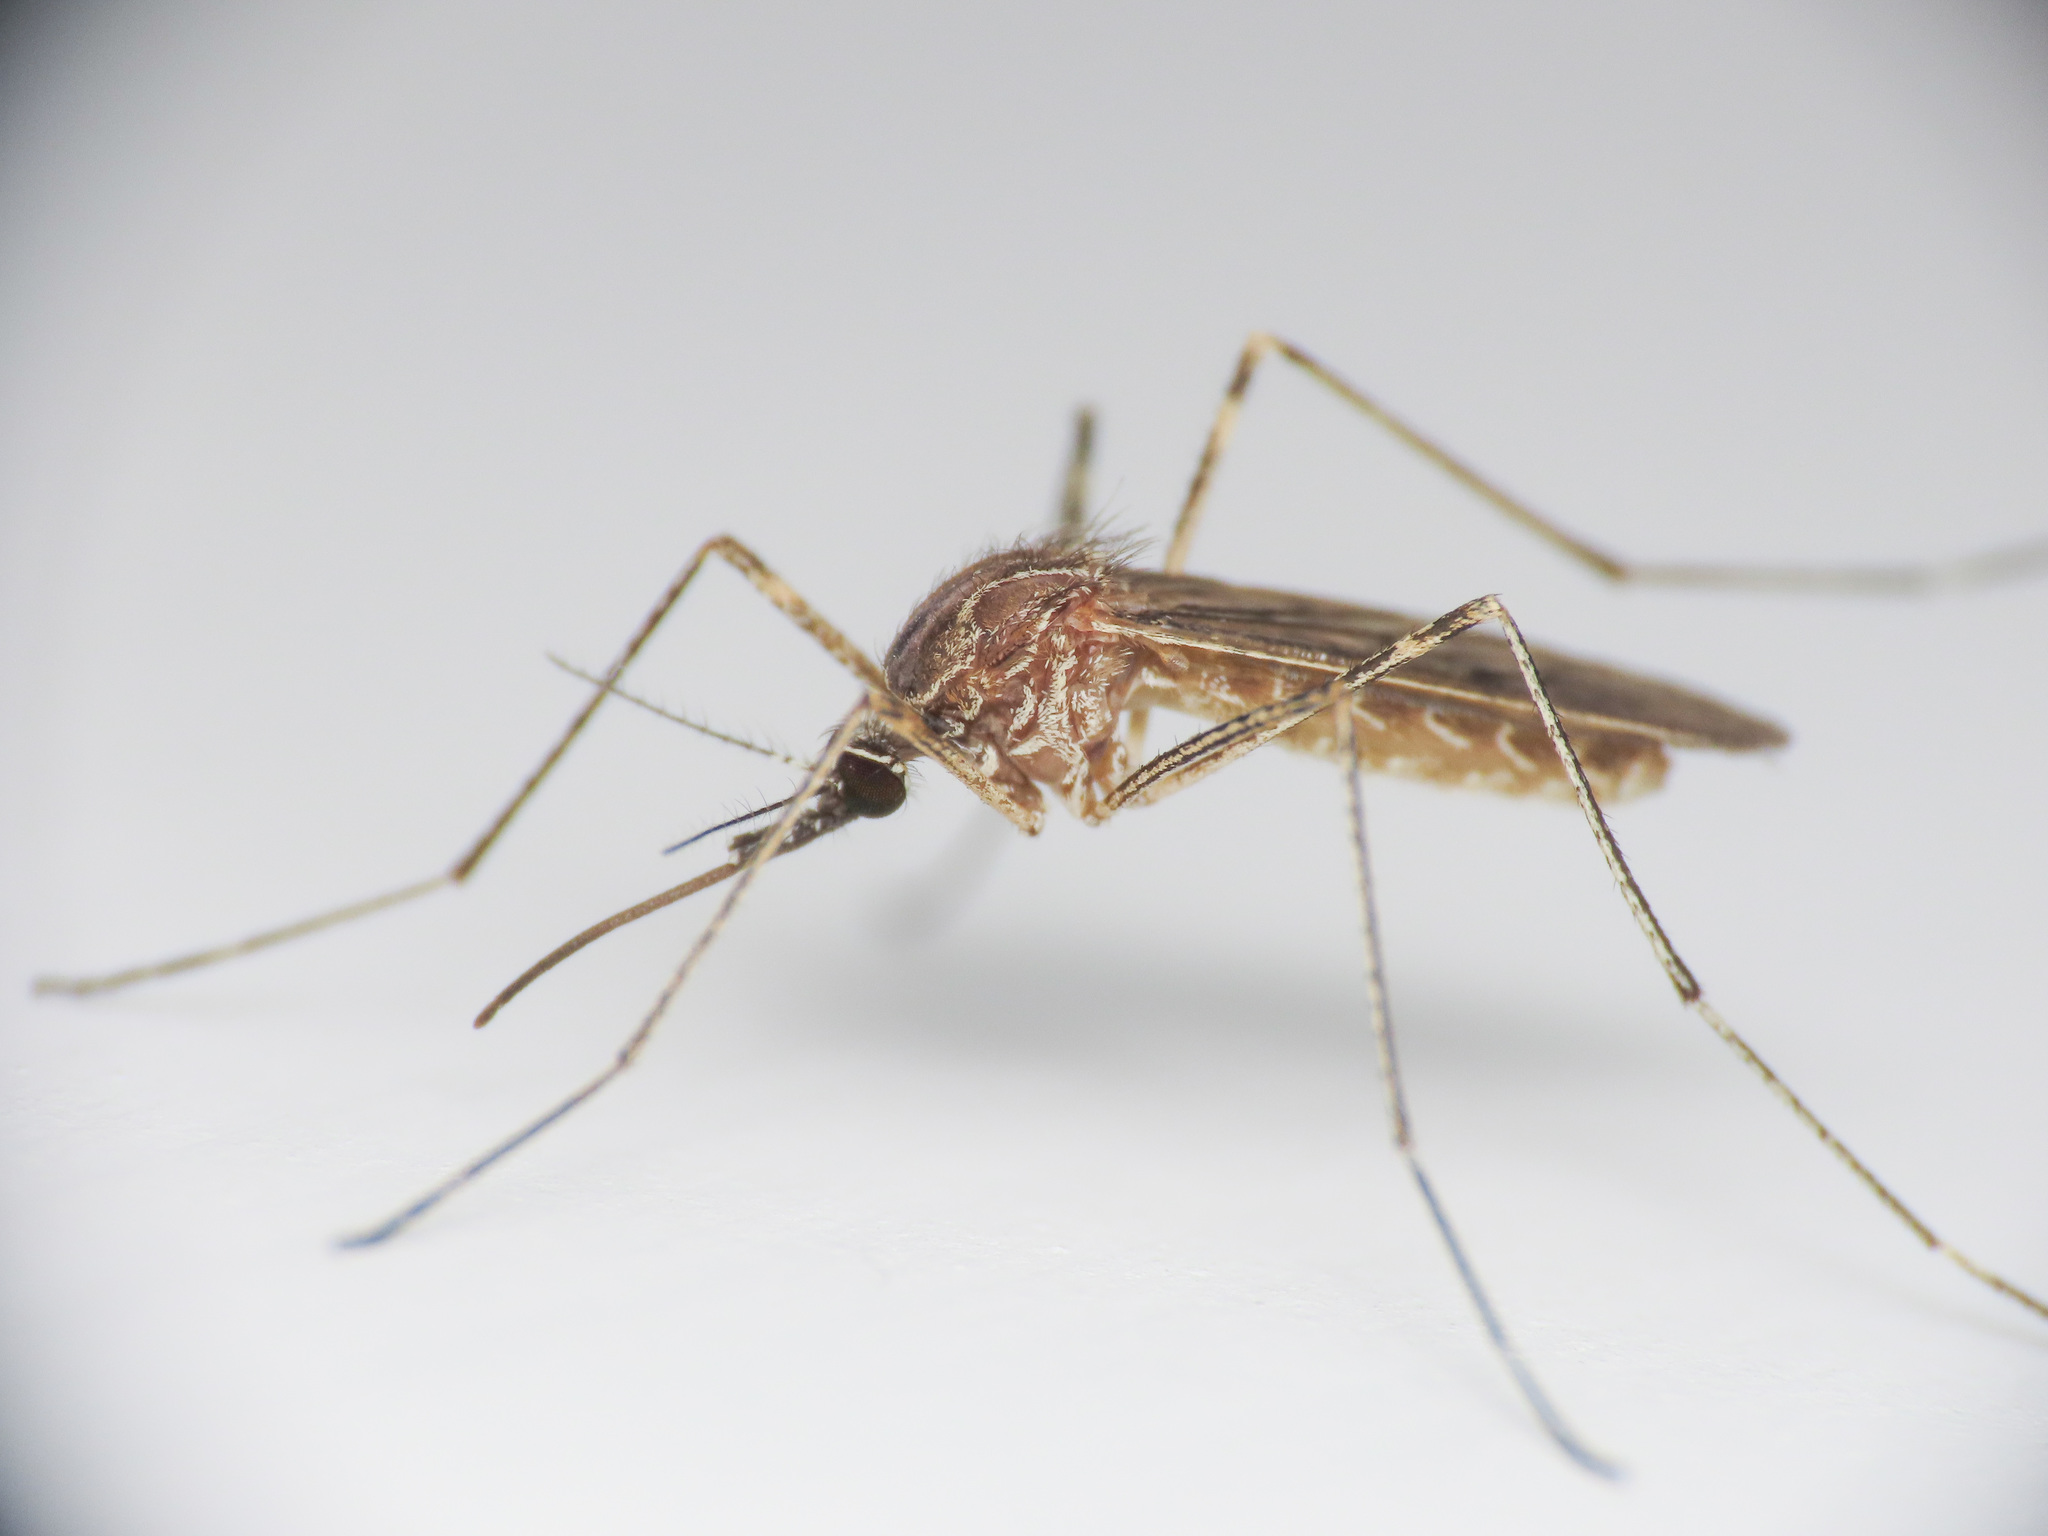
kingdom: Animalia
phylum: Arthropoda
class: Insecta
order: Diptera
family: Culicidae
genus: Culiseta
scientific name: Culiseta longiareolata
